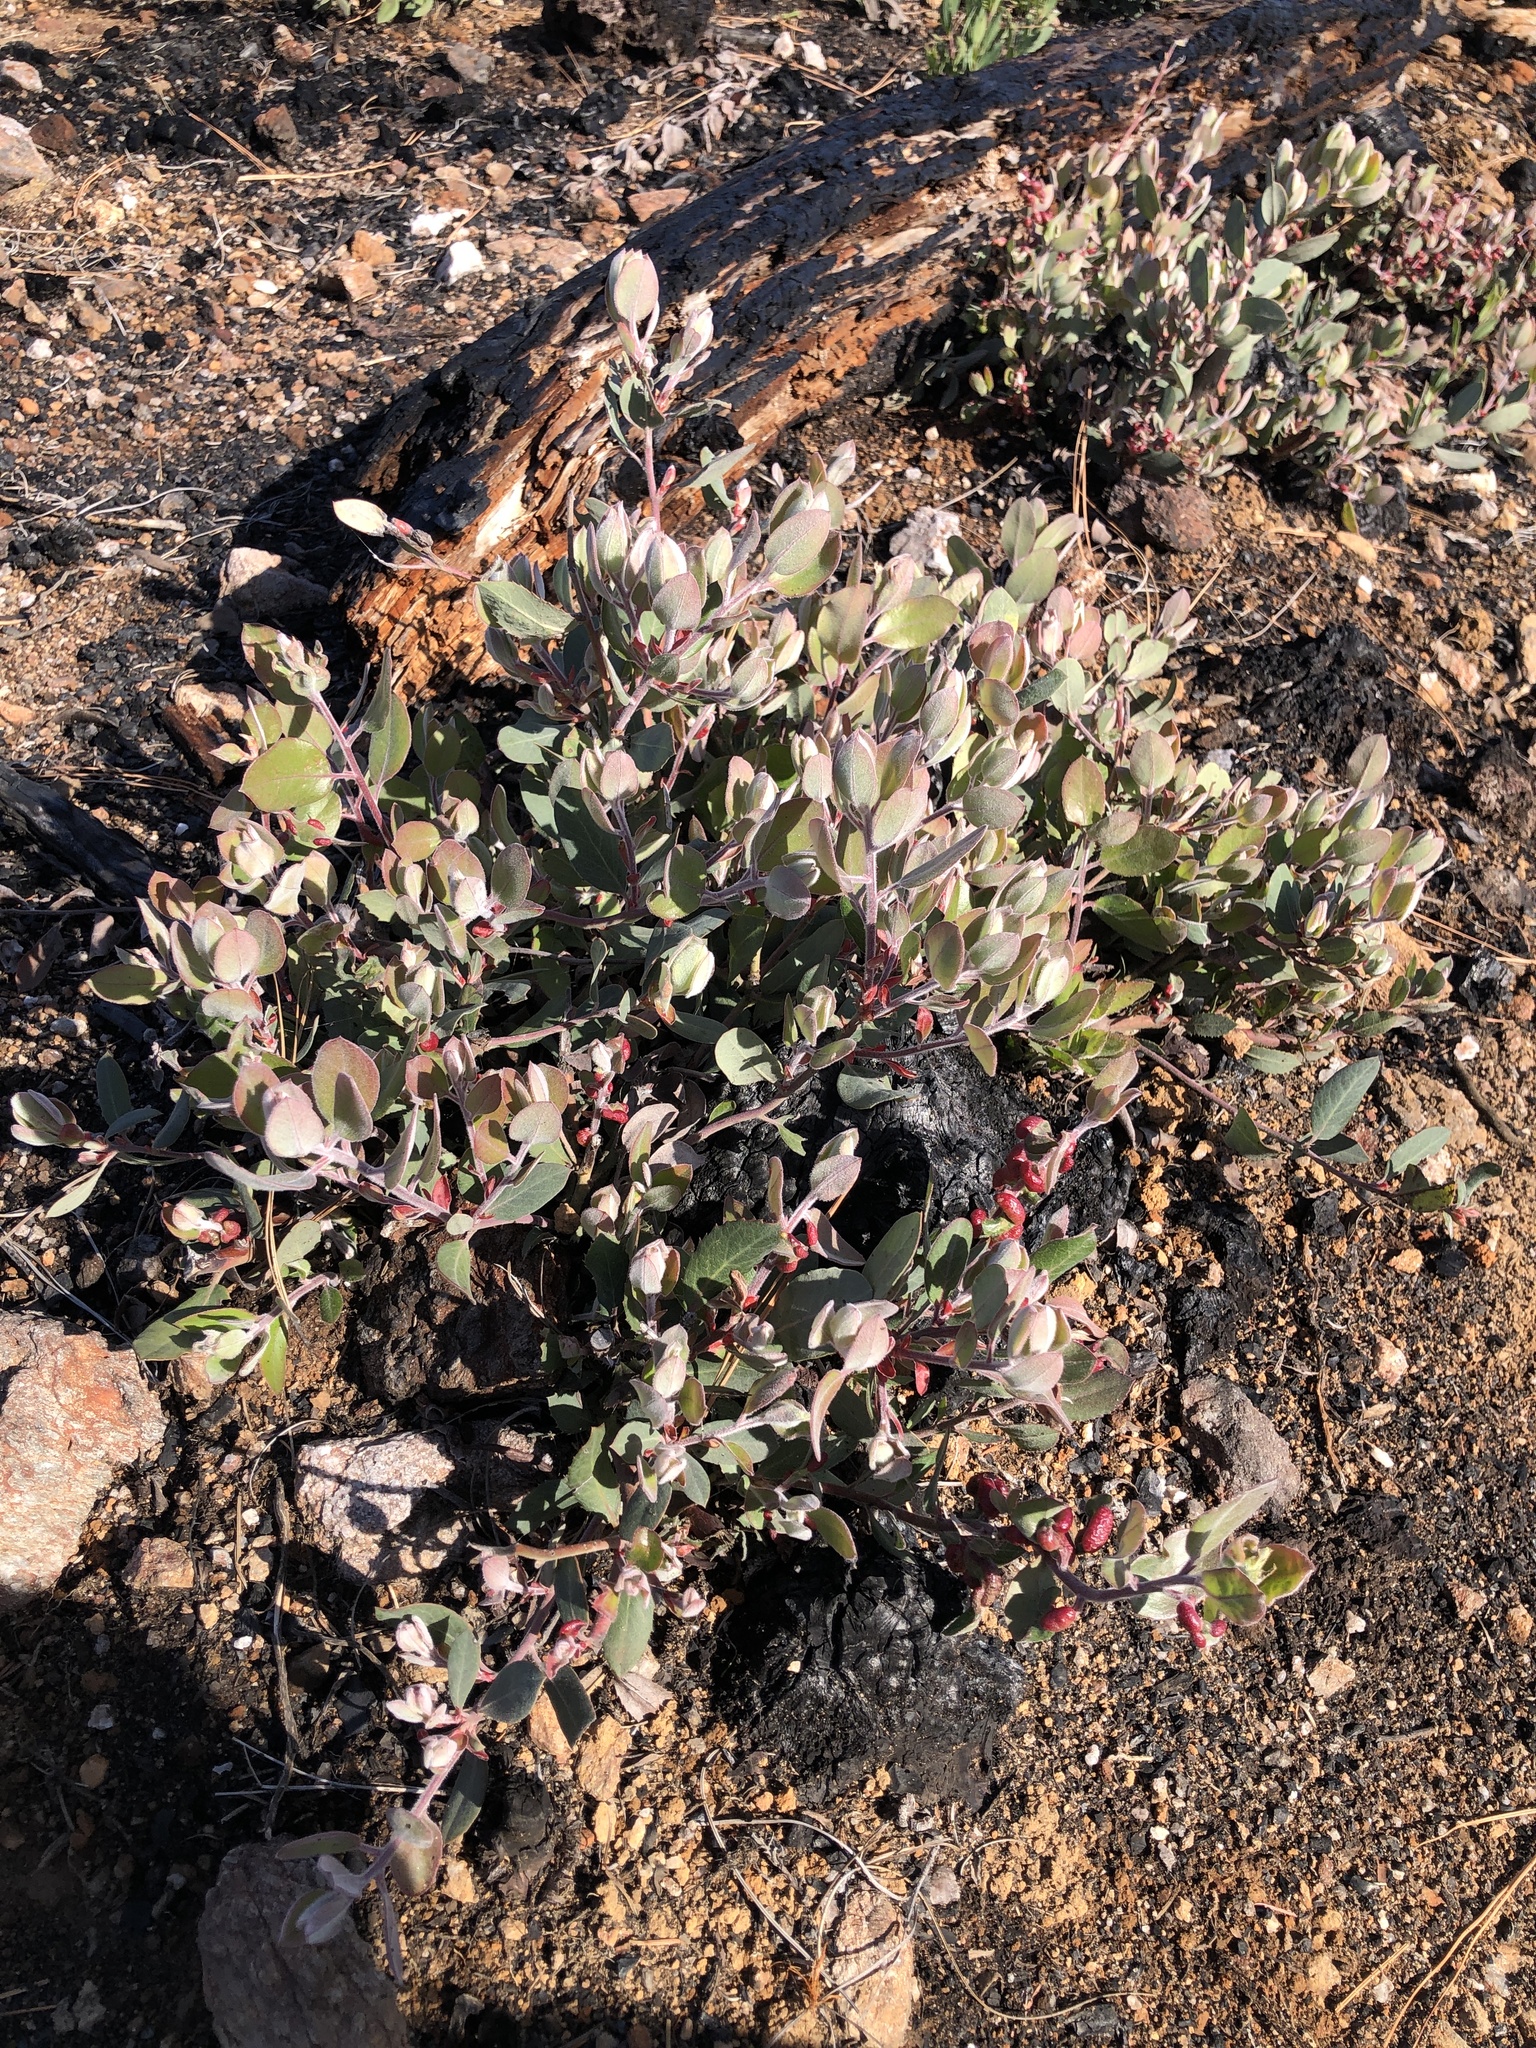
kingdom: Animalia
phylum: Arthropoda
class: Insecta
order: Hemiptera
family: Aphididae
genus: Tamalia
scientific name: Tamalia coweni
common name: Manzanita leafgall aphid
